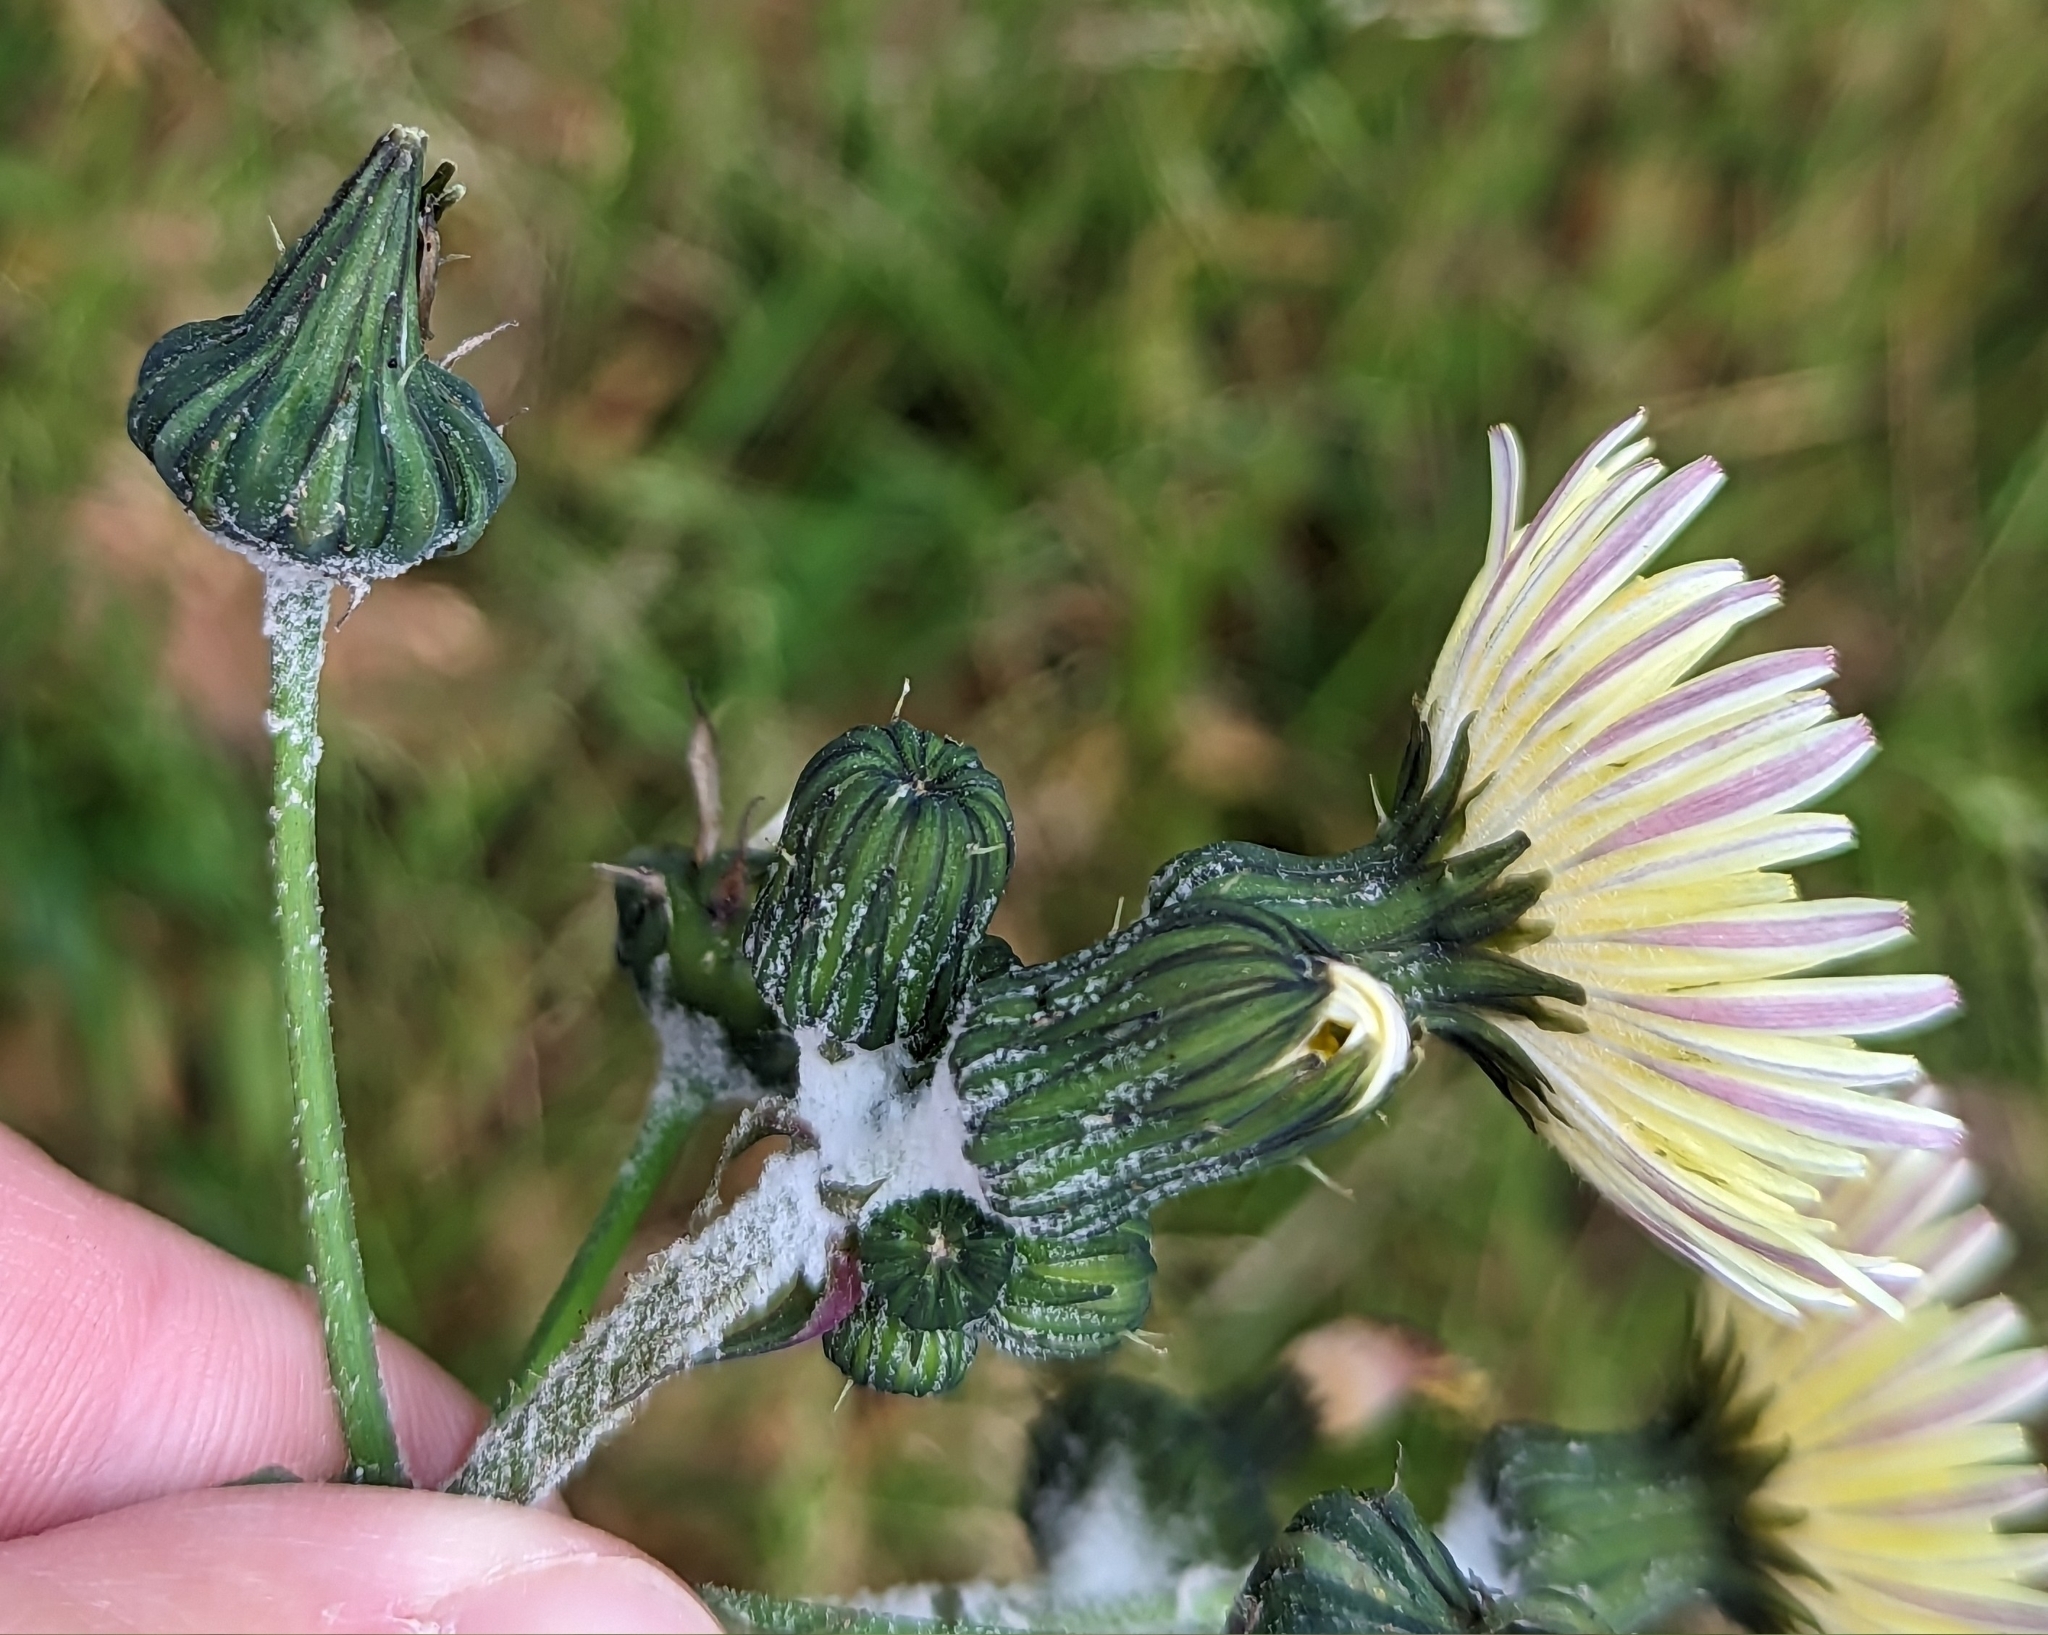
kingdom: Plantae
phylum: Tracheophyta
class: Magnoliopsida
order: Asterales
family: Asteraceae
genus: Sonchus
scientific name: Sonchus oleraceus
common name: Common sowthistle
